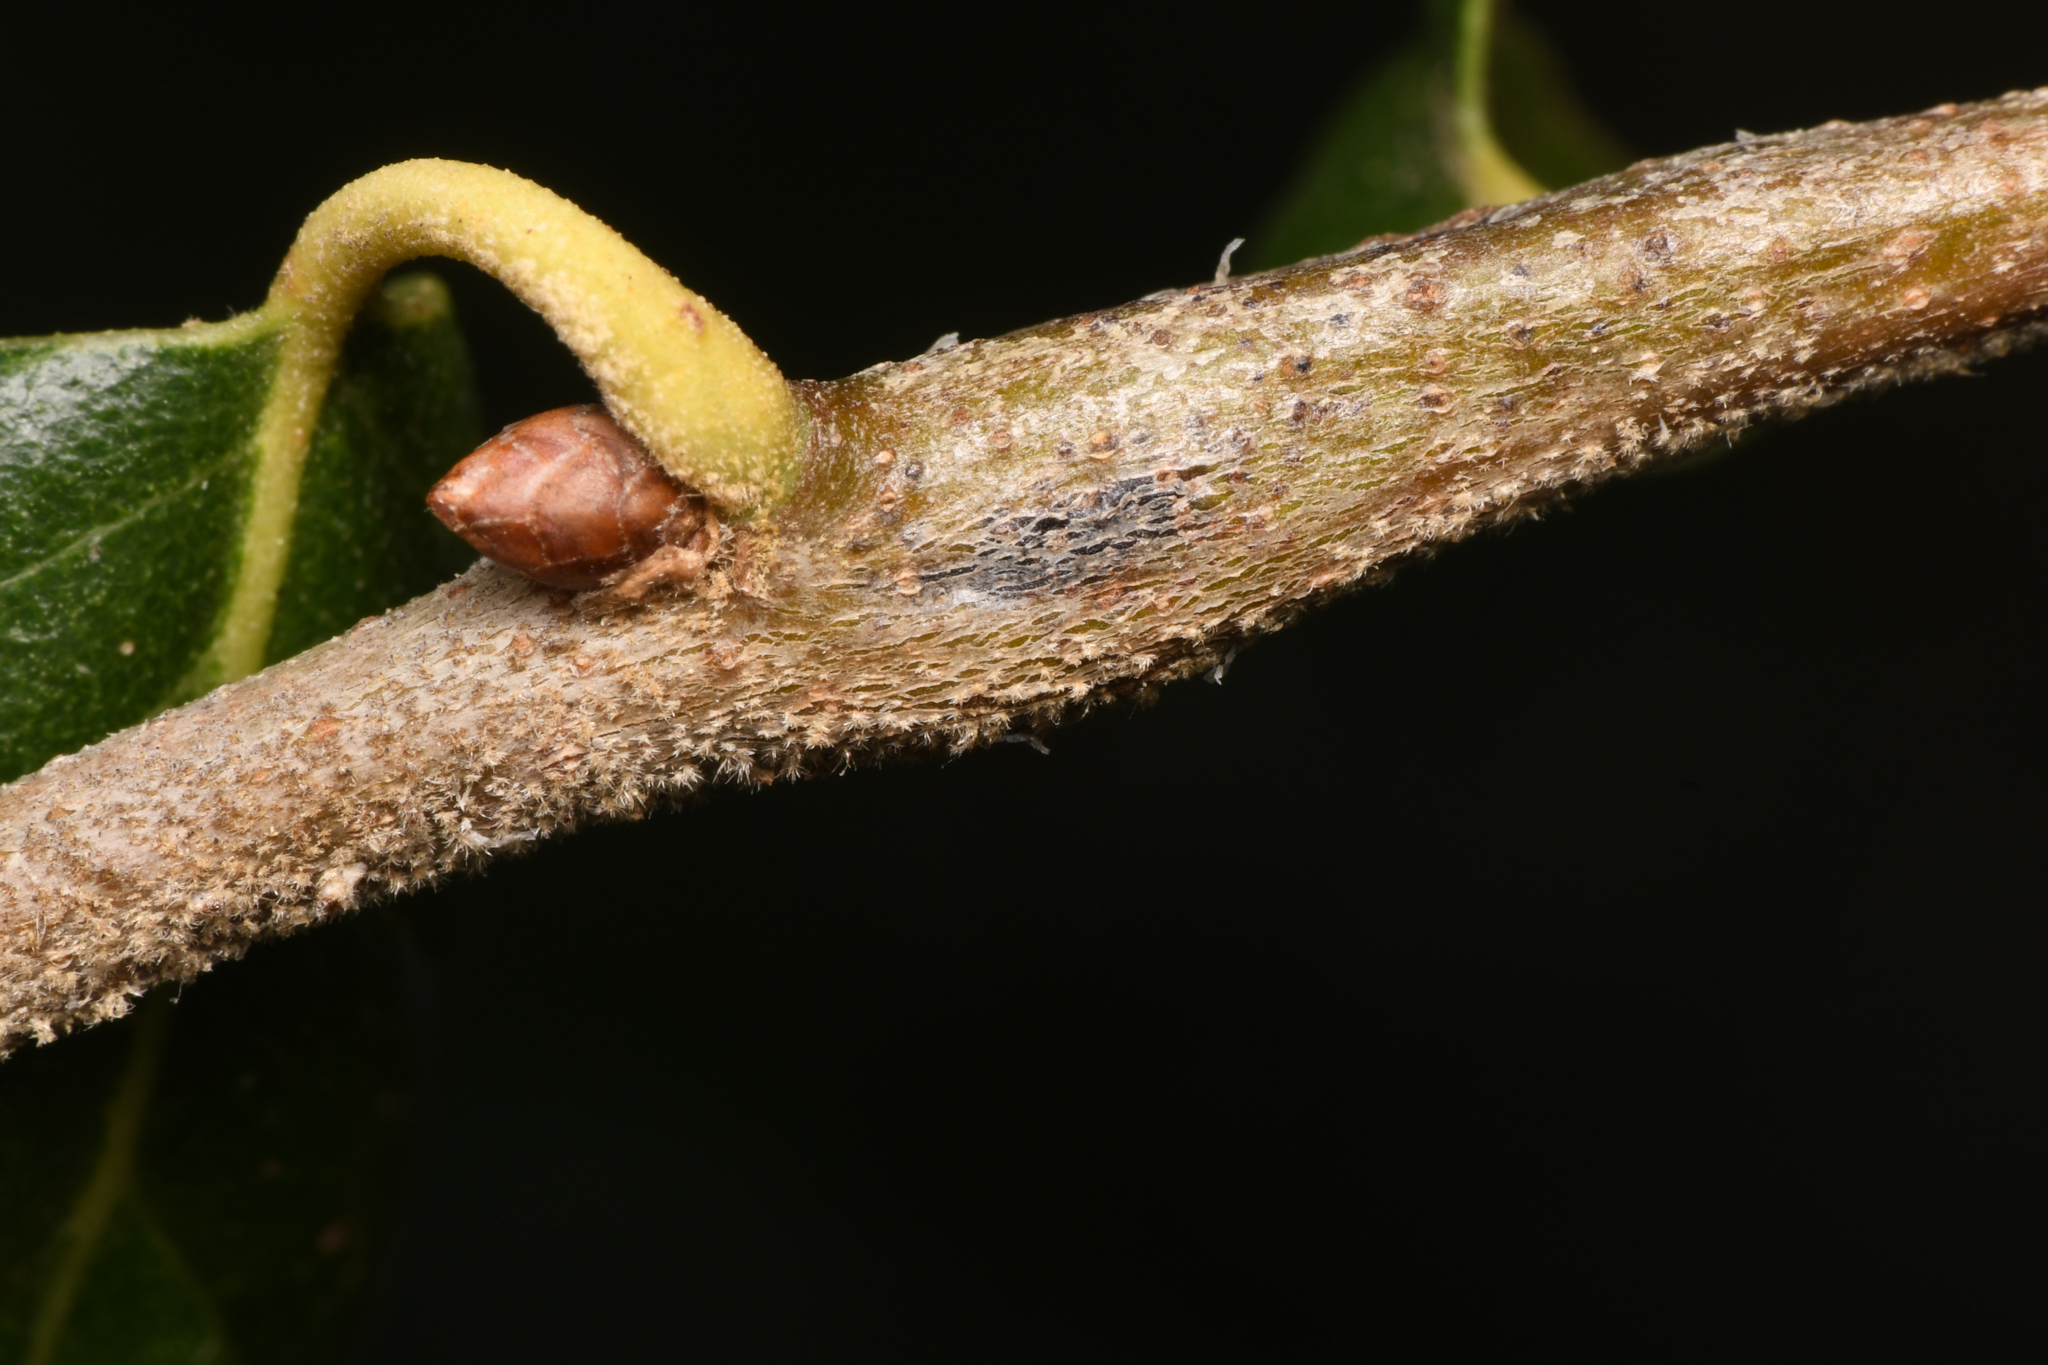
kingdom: Animalia
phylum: Arthropoda
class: Insecta
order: Hymenoptera
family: Cynipidae
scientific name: Cynipidae
